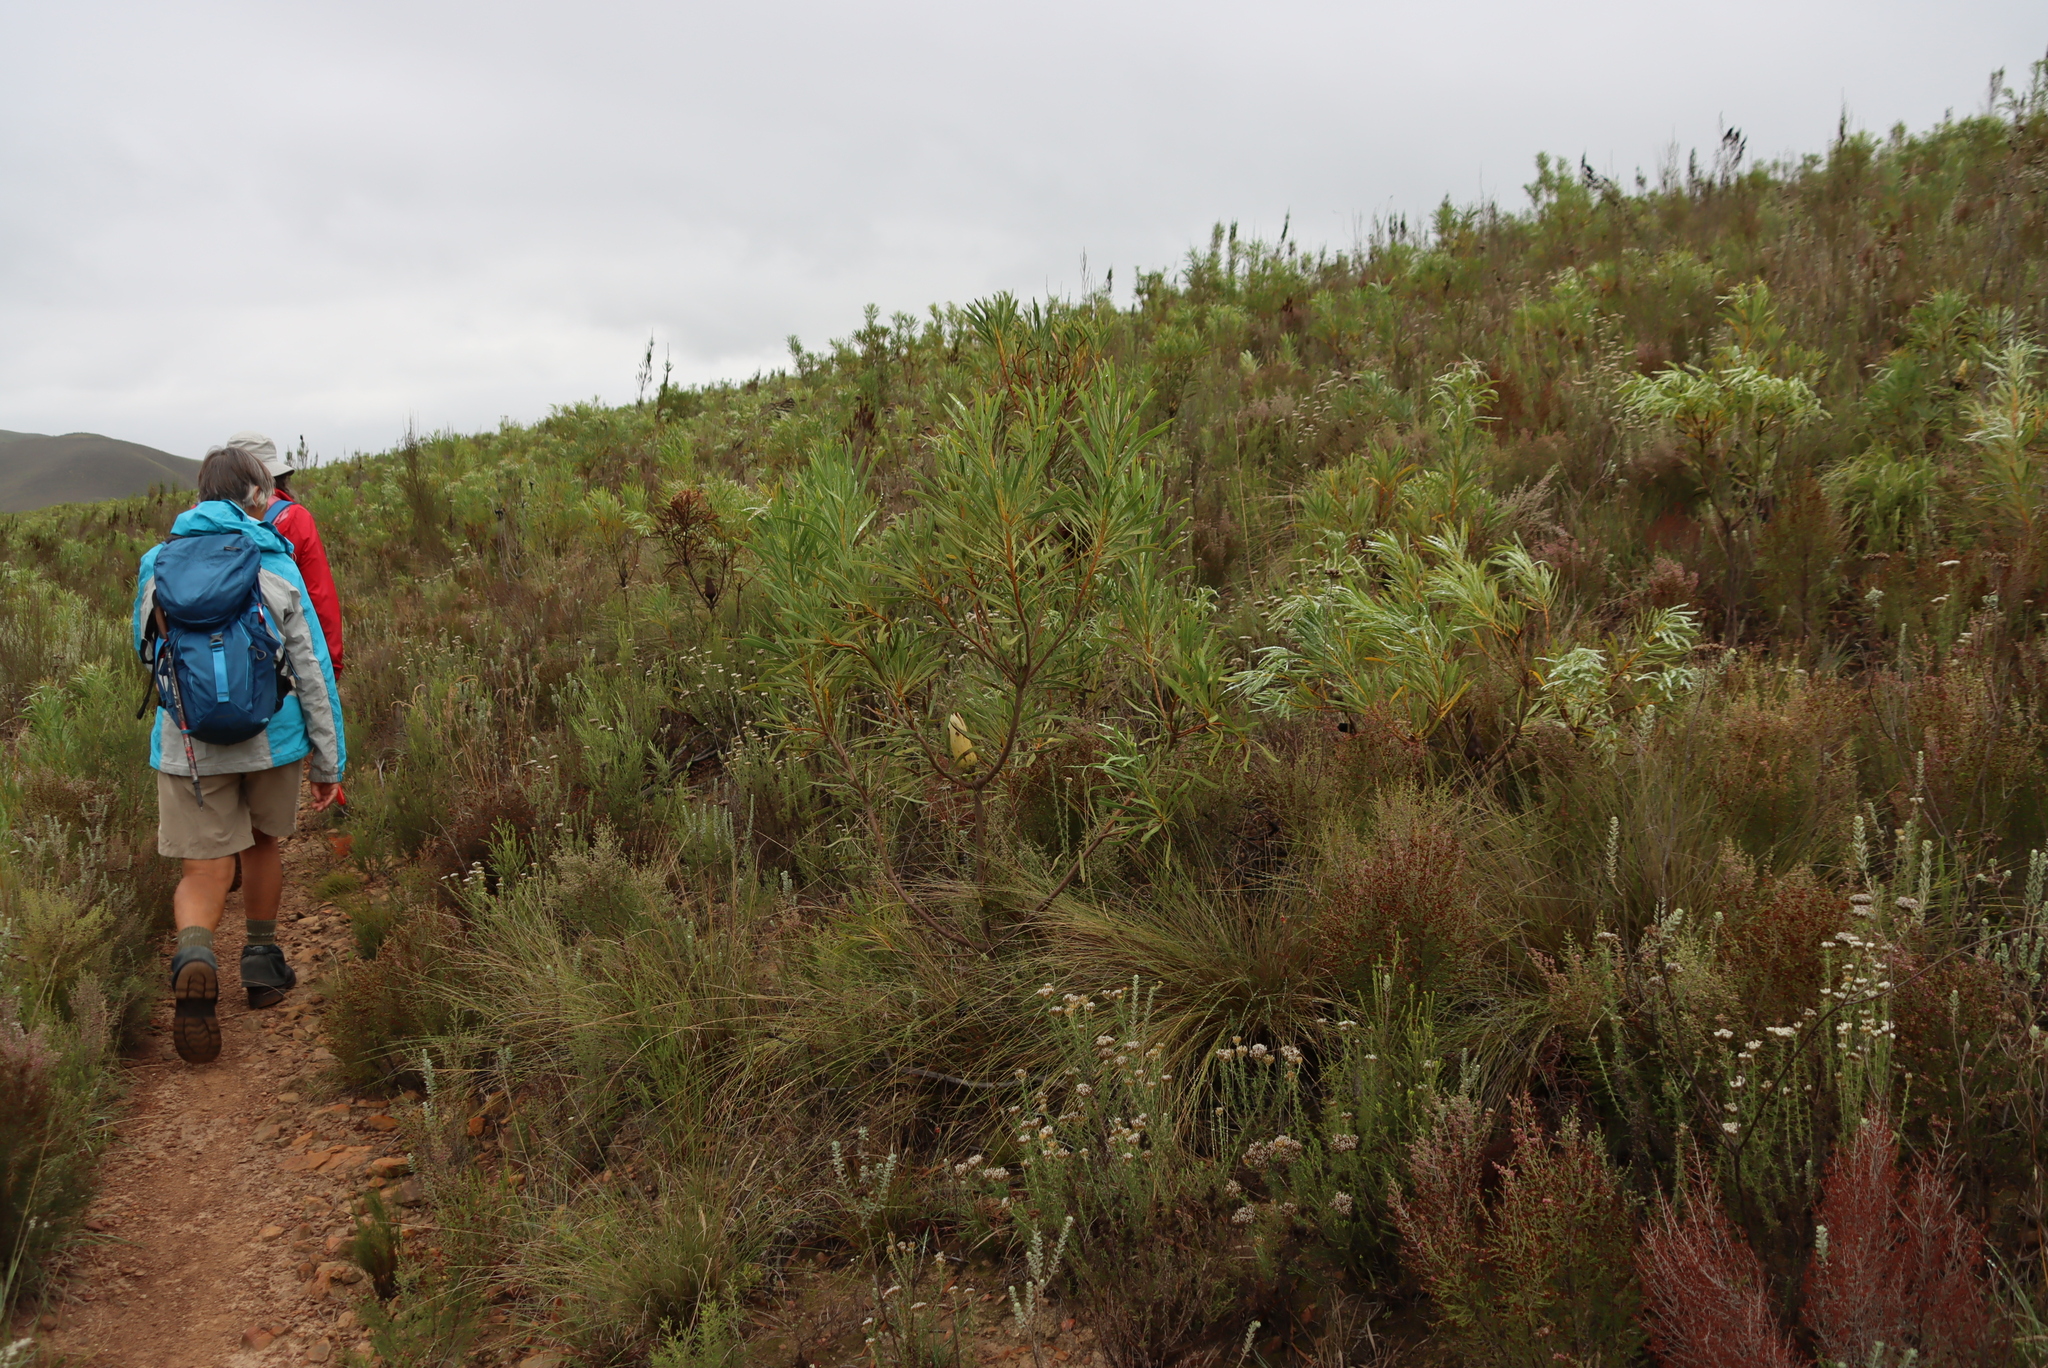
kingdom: Plantae
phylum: Tracheophyta
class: Magnoliopsida
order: Proteales
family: Proteaceae
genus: Protea
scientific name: Protea repens
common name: Sugarbush
